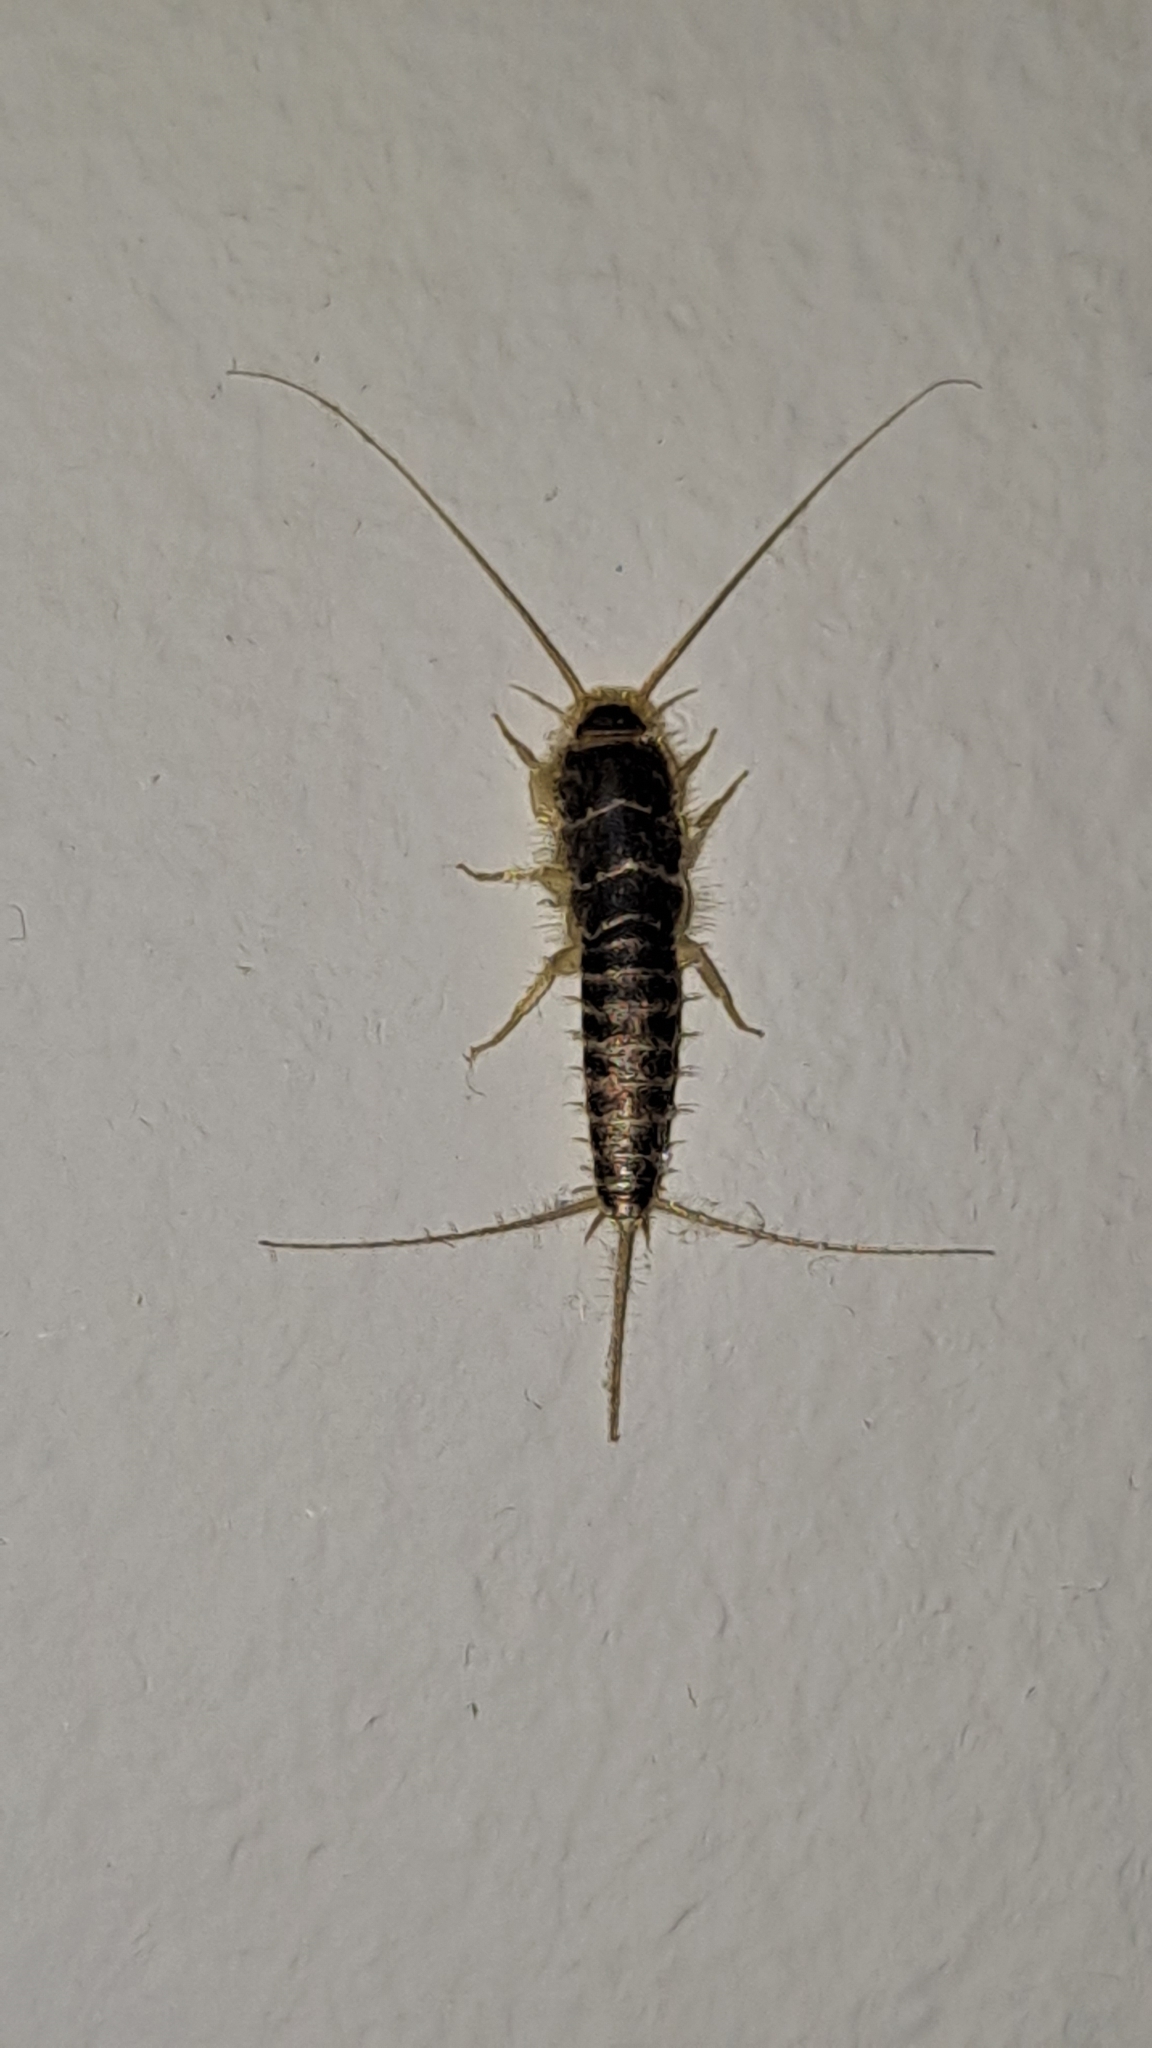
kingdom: Animalia
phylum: Arthropoda
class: Insecta
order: Zygentoma
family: Lepismatidae
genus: Ctenolepisma
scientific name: Ctenolepisma longicaudatum
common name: Silverfish
